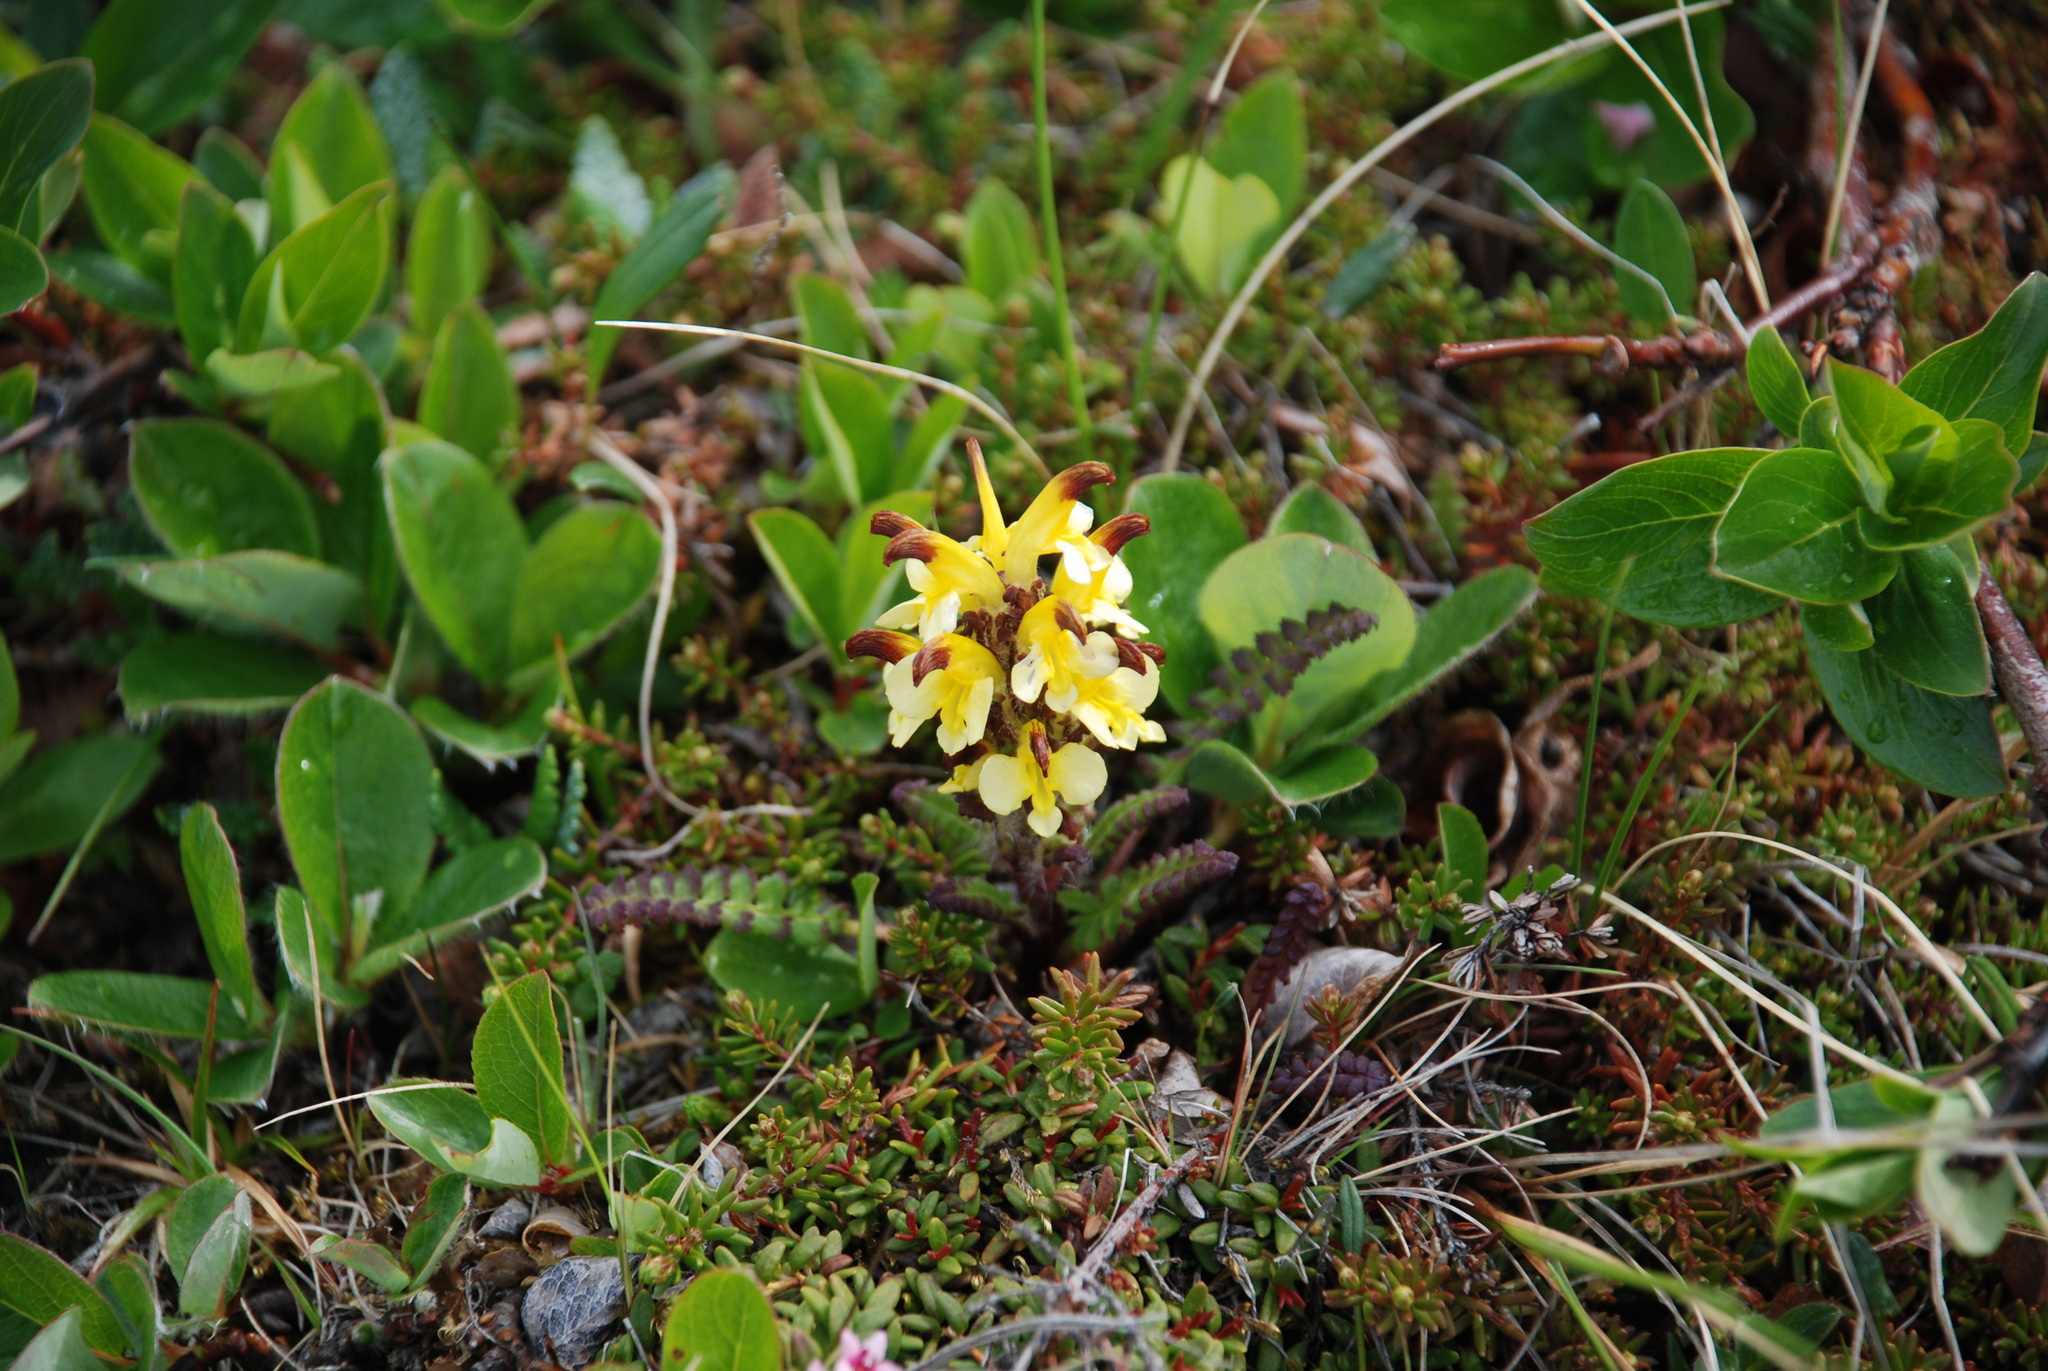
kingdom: Plantae
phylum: Tracheophyta
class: Magnoliopsida
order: Lamiales
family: Orobanchaceae
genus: Pedicularis
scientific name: Pedicularis oederi
